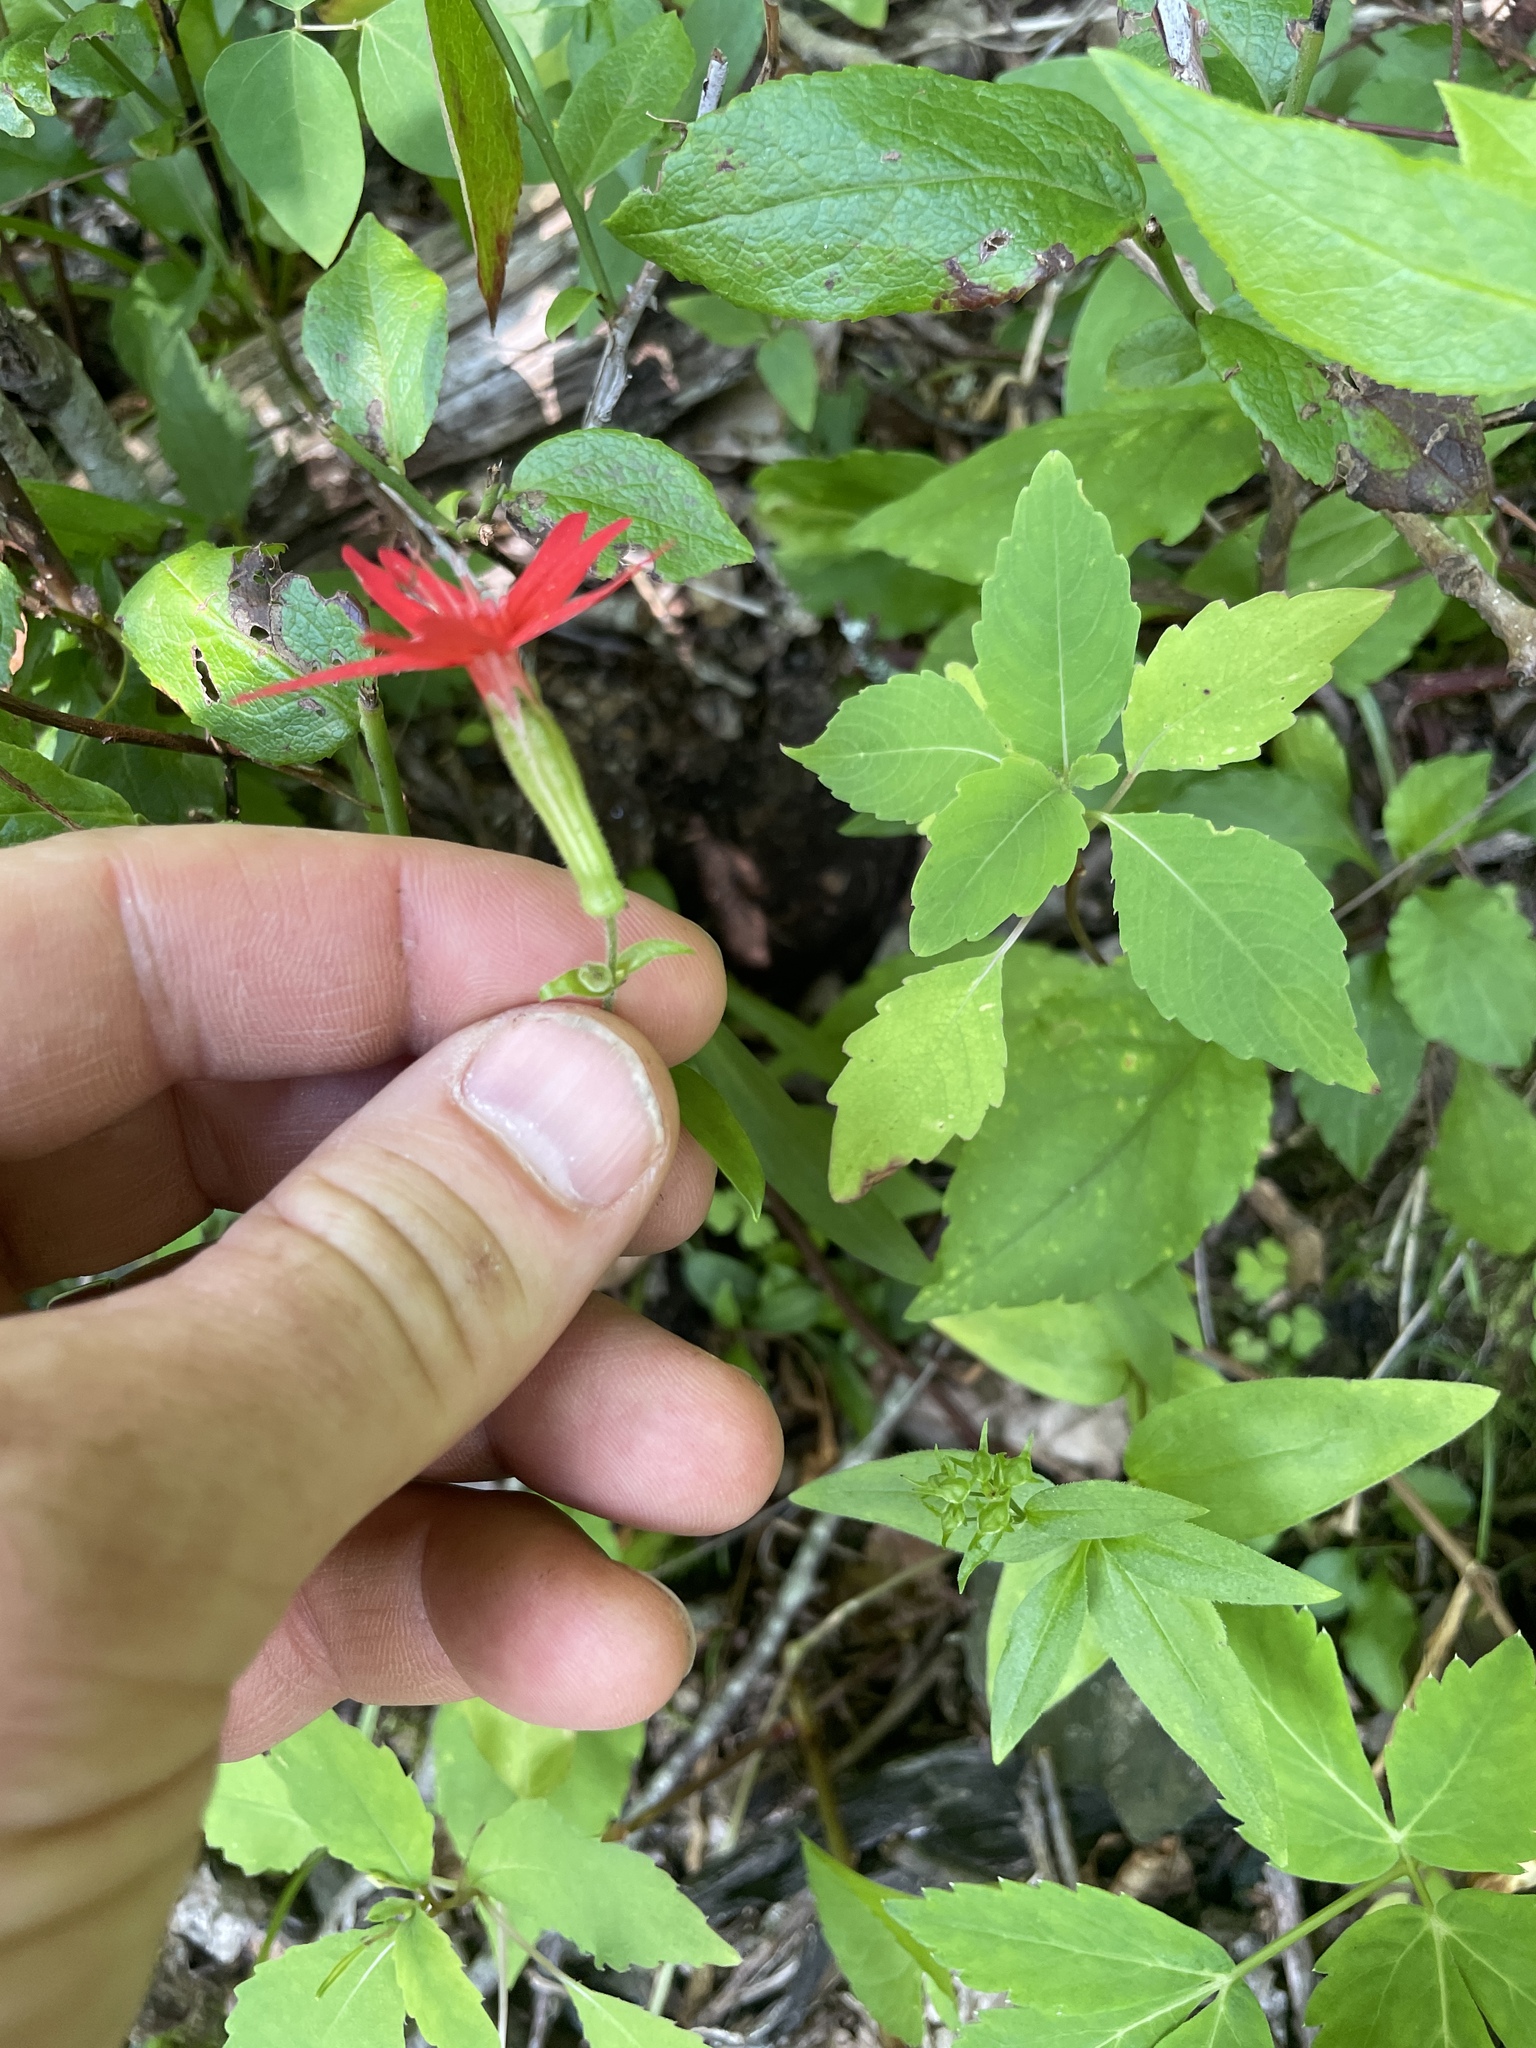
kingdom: Plantae
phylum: Tracheophyta
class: Magnoliopsida
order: Caryophyllales
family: Caryophyllaceae
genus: Silene
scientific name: Silene virginica
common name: Fire-pink
